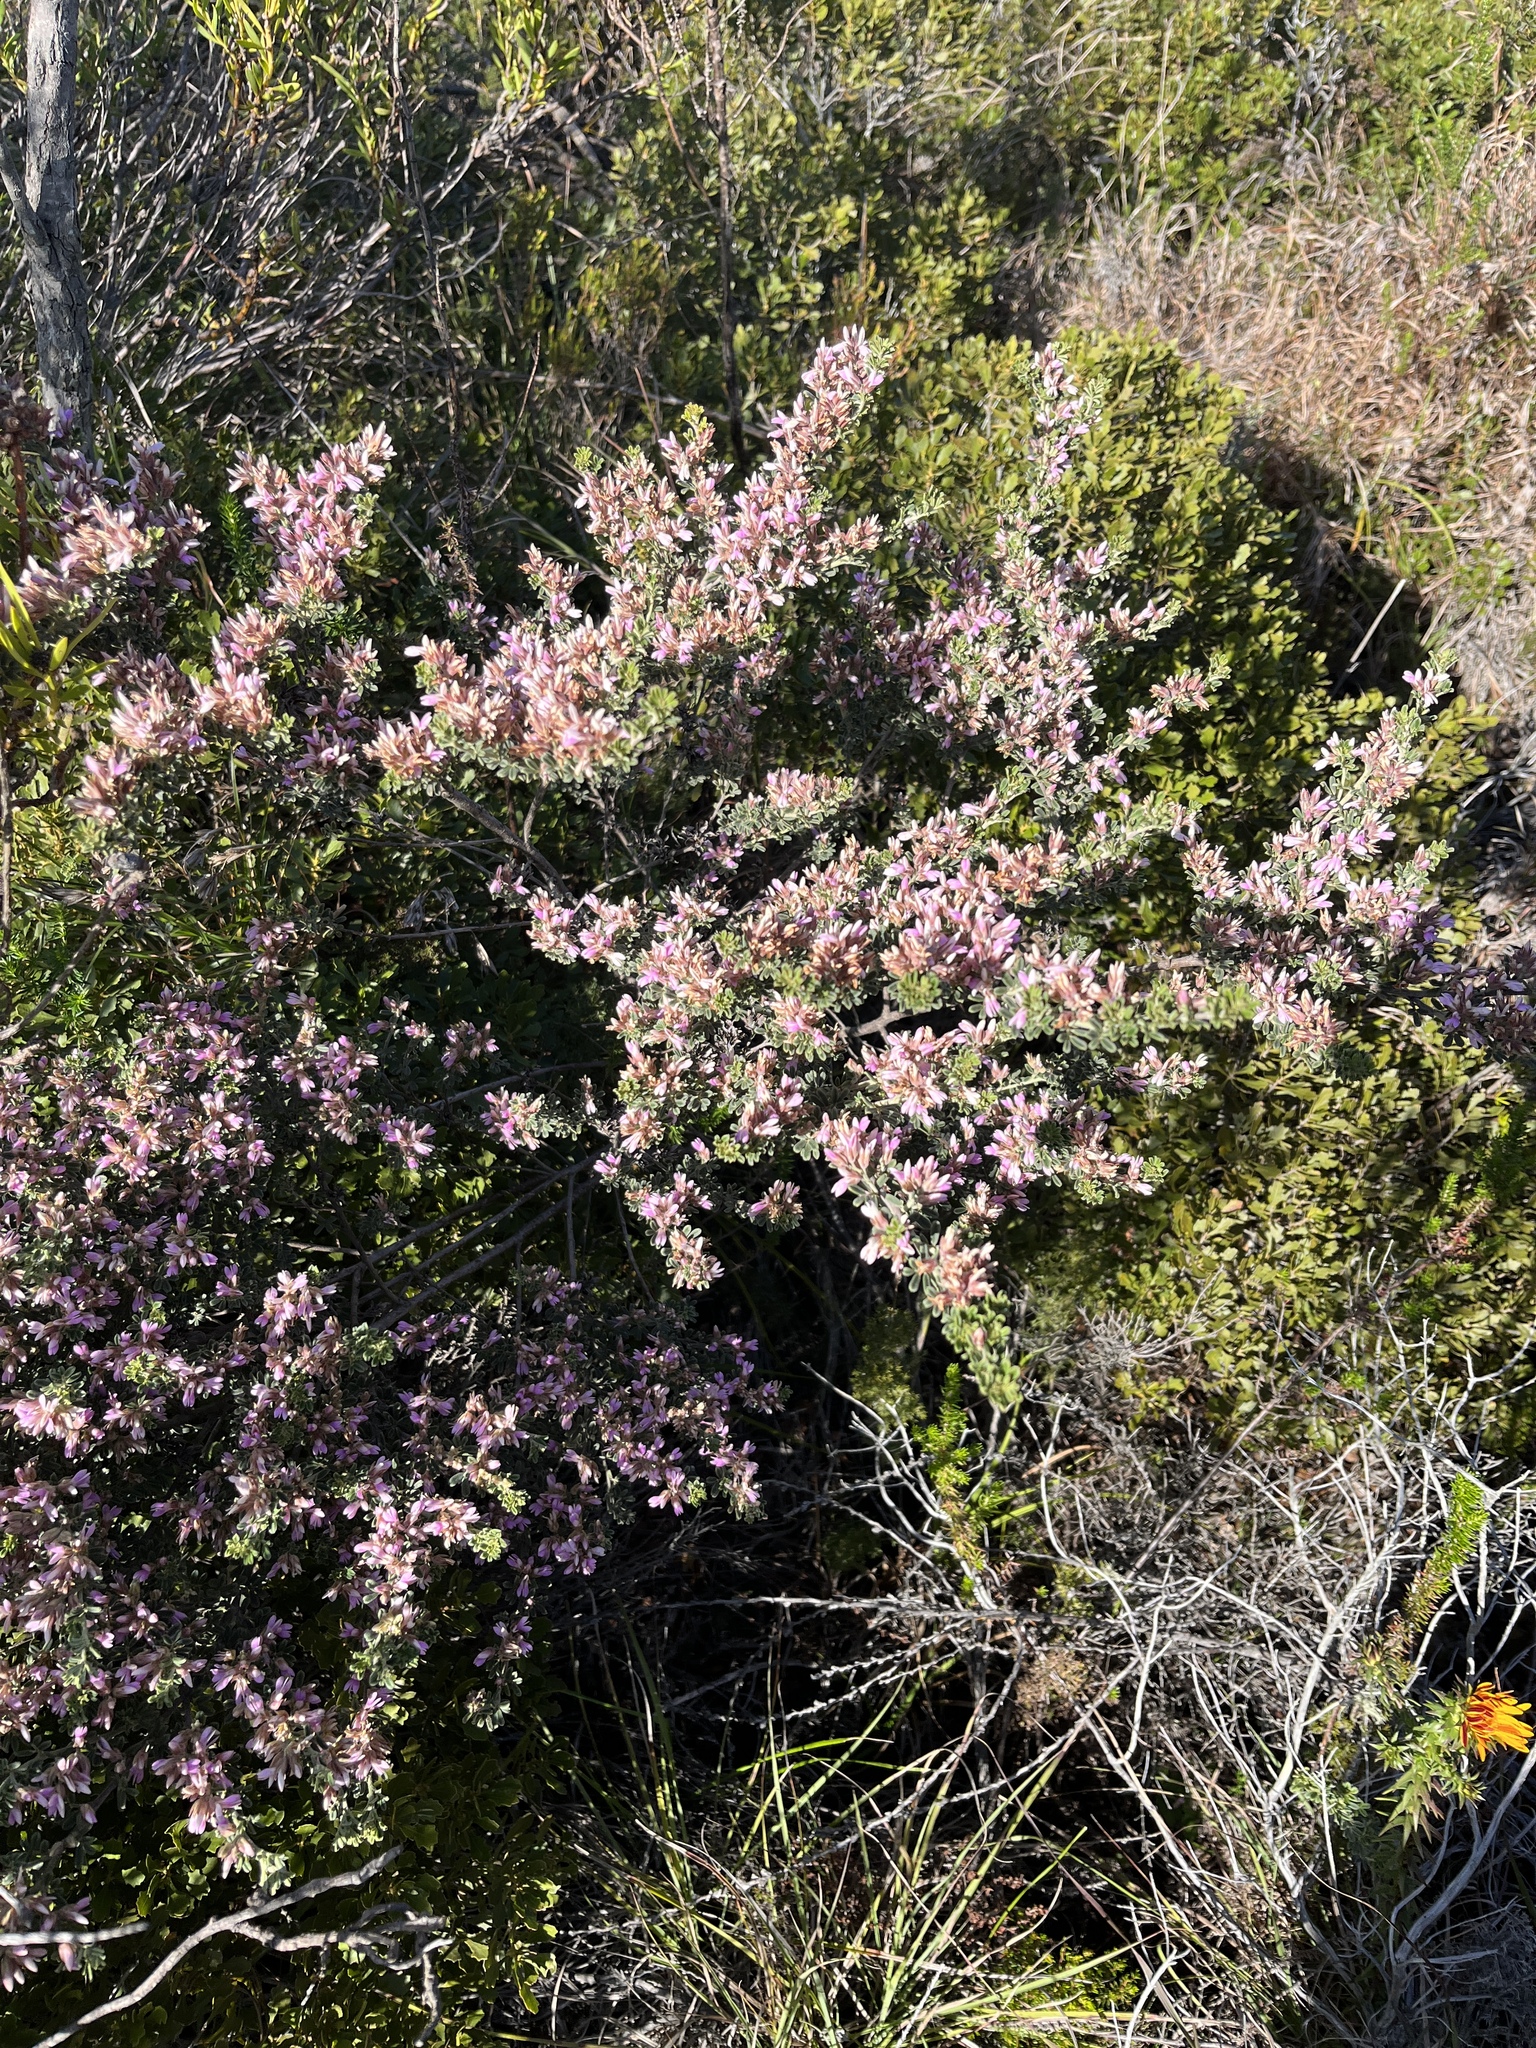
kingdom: Plantae
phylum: Tracheophyta
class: Magnoliopsida
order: Fabales
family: Fabaceae
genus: Indigofera
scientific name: Indigofera brachystachya
